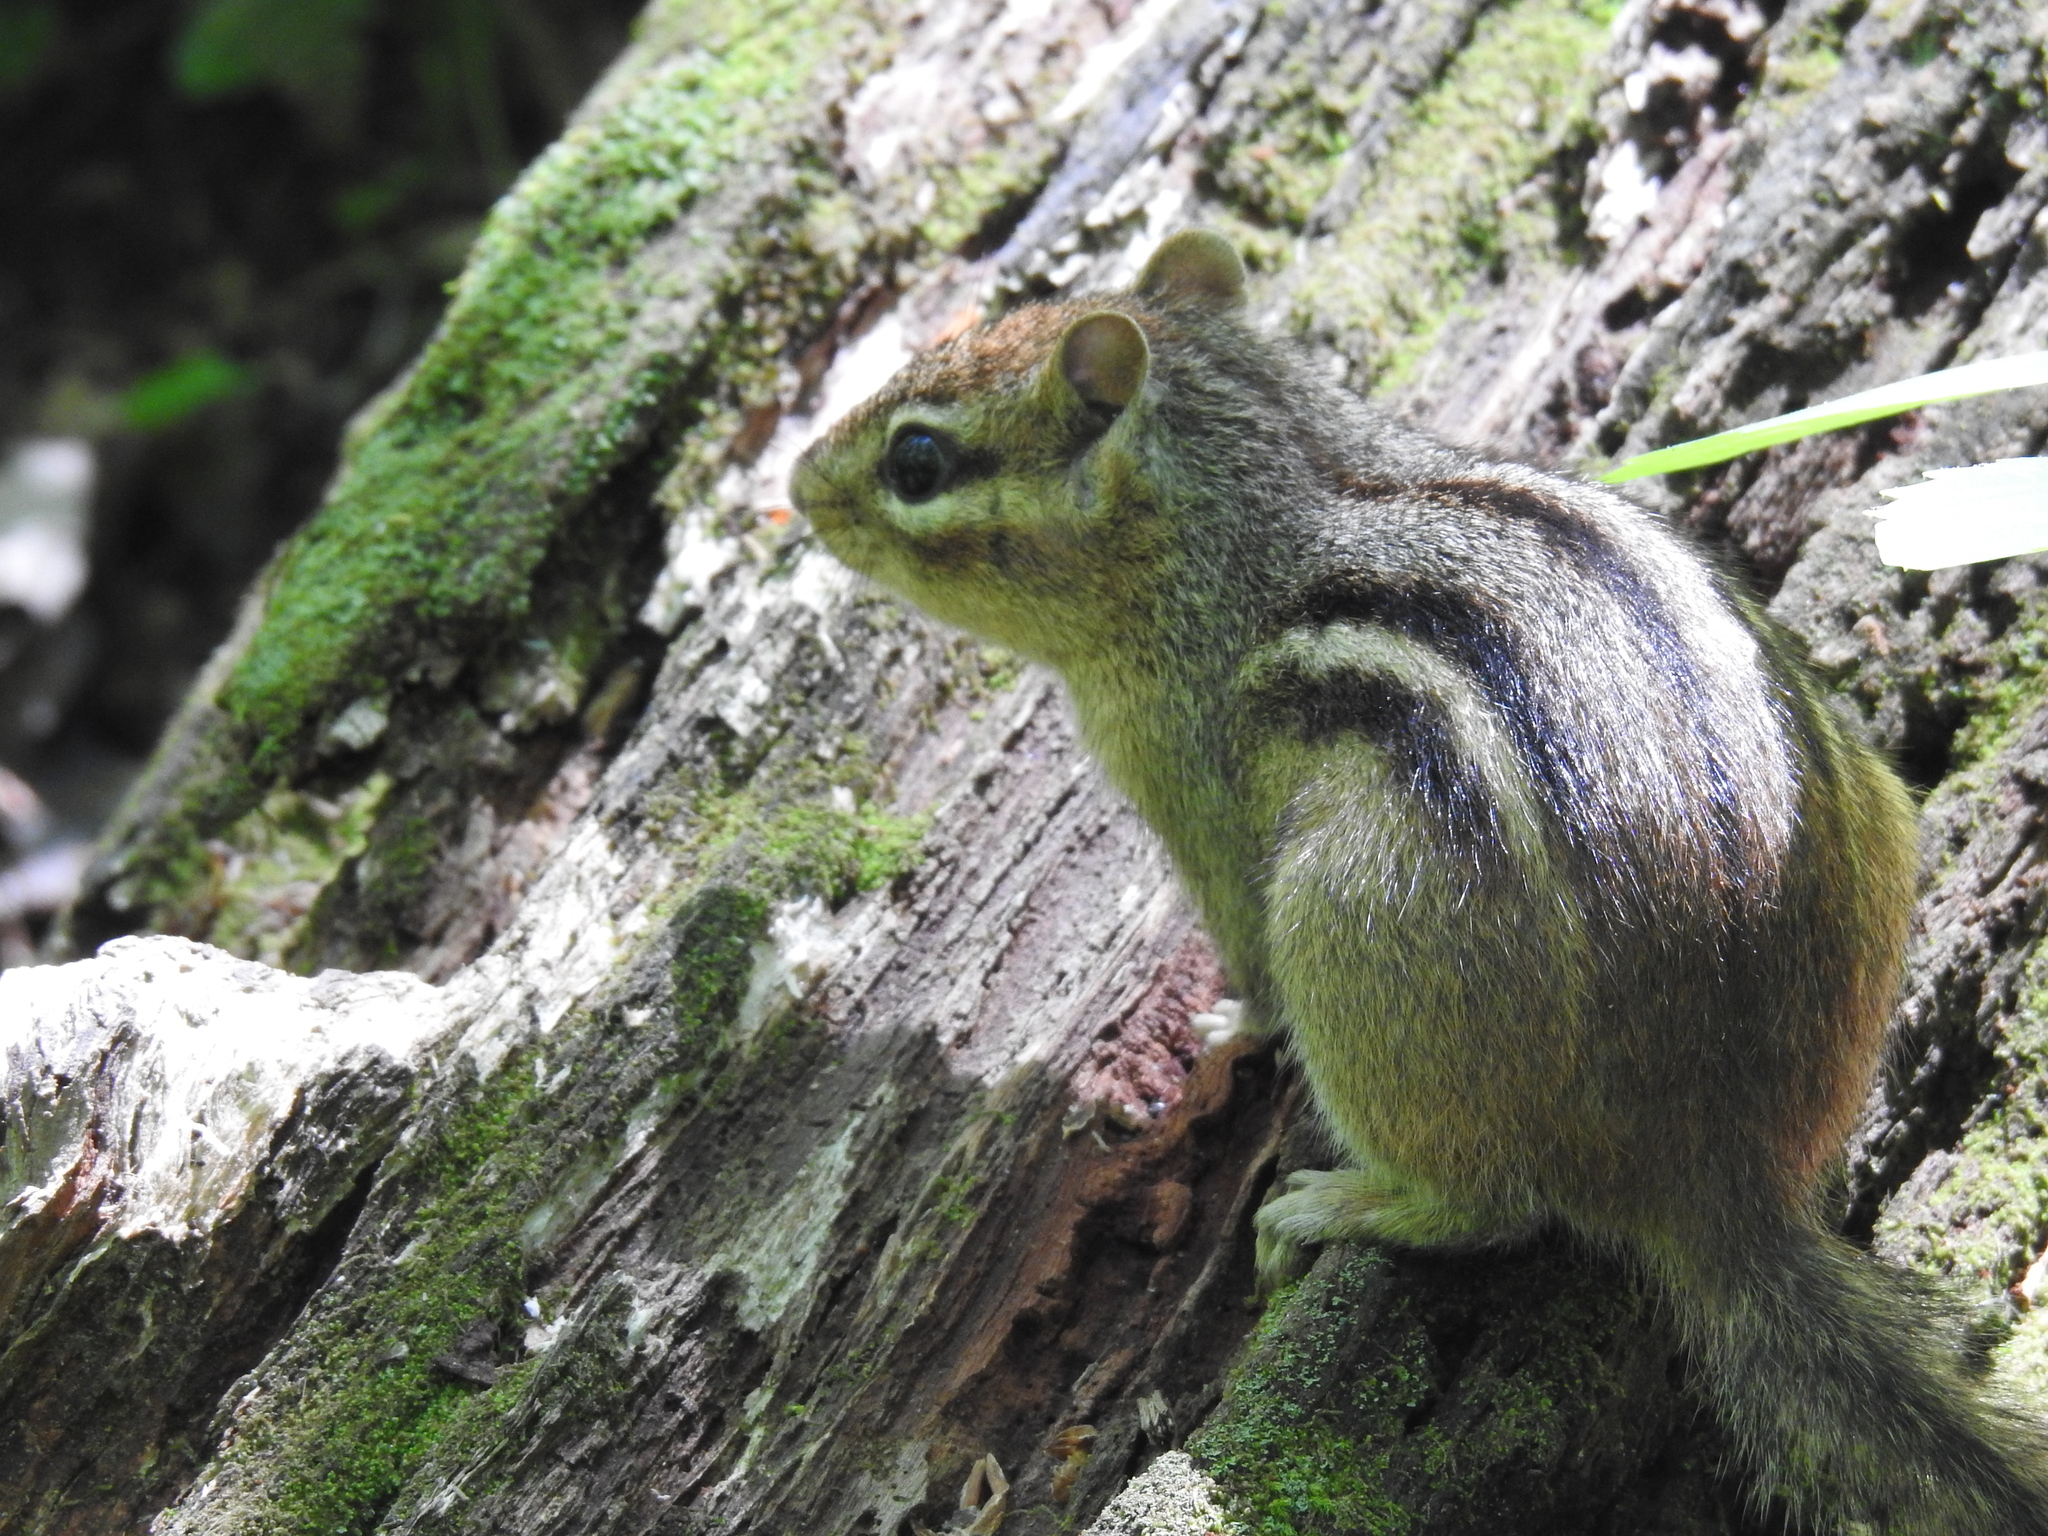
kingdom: Animalia
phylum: Chordata
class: Mammalia
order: Rodentia
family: Sciuridae
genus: Tamias
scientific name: Tamias striatus
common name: Eastern chipmunk
